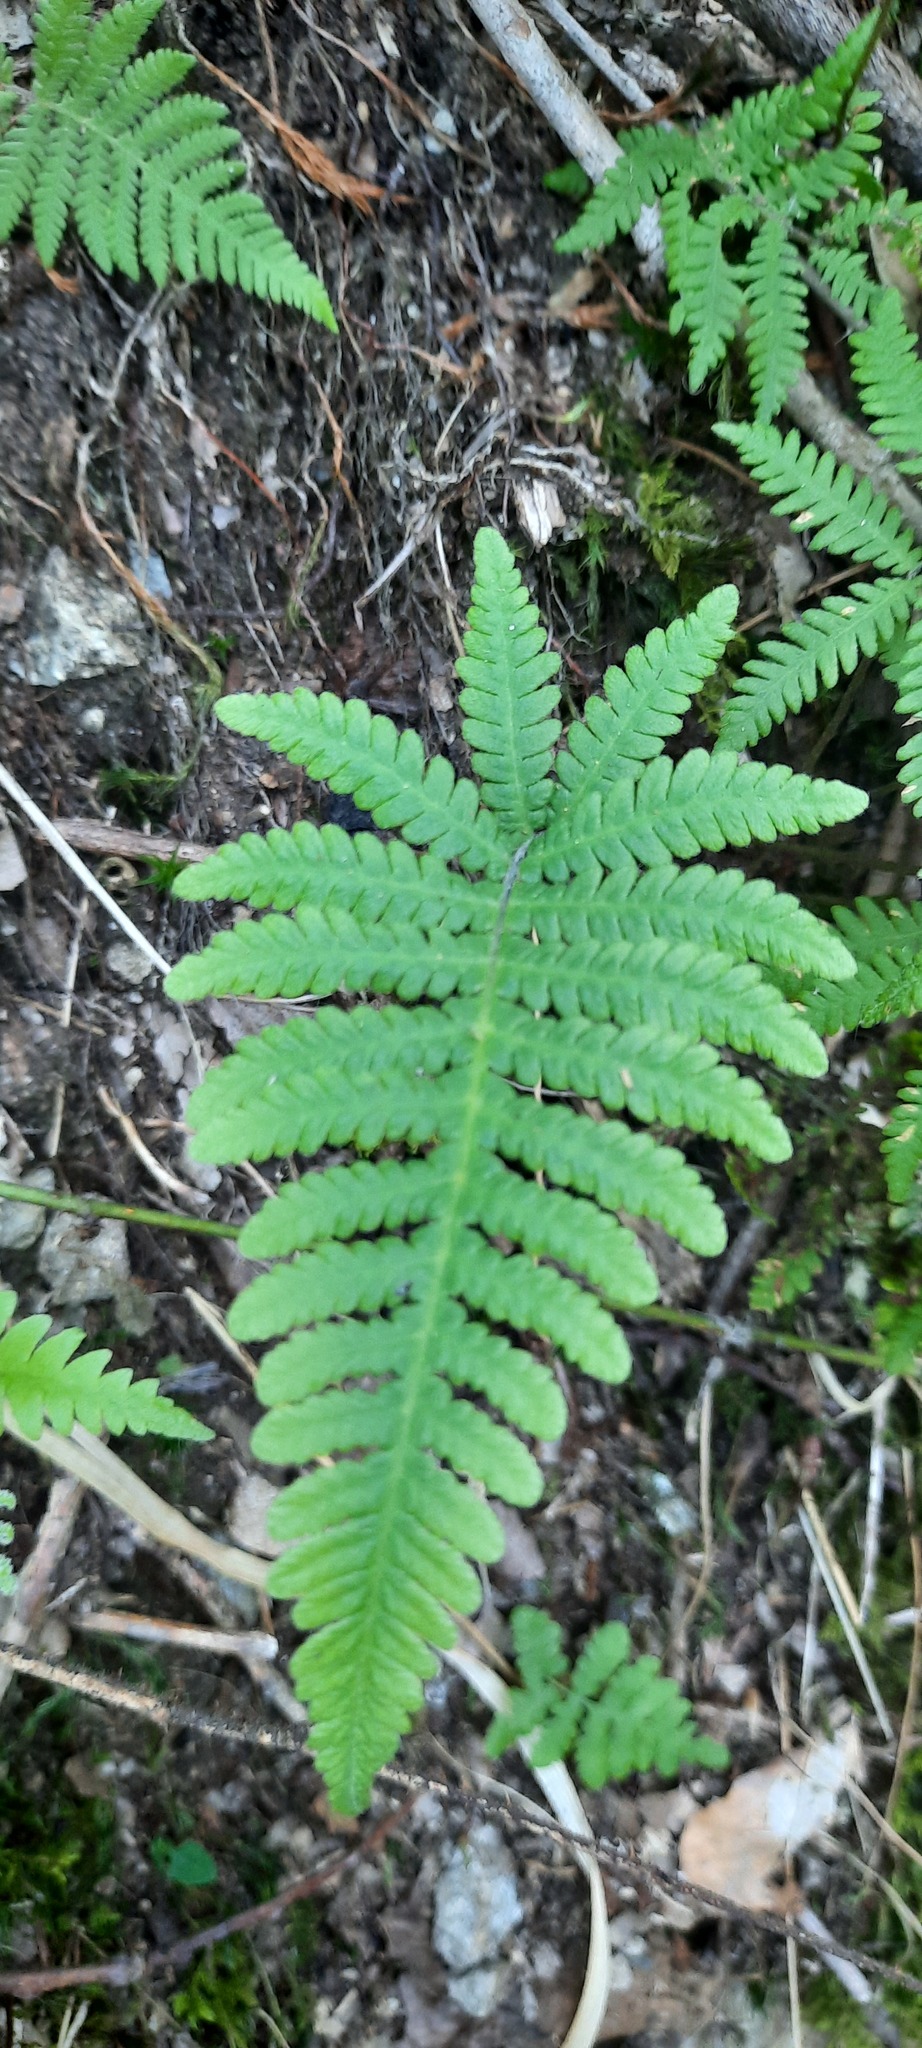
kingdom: Plantae
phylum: Tracheophyta
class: Polypodiopsida
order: Polypodiales
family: Thelypteridaceae
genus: Phegopteris
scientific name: Phegopteris connectilis
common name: Beech fern
